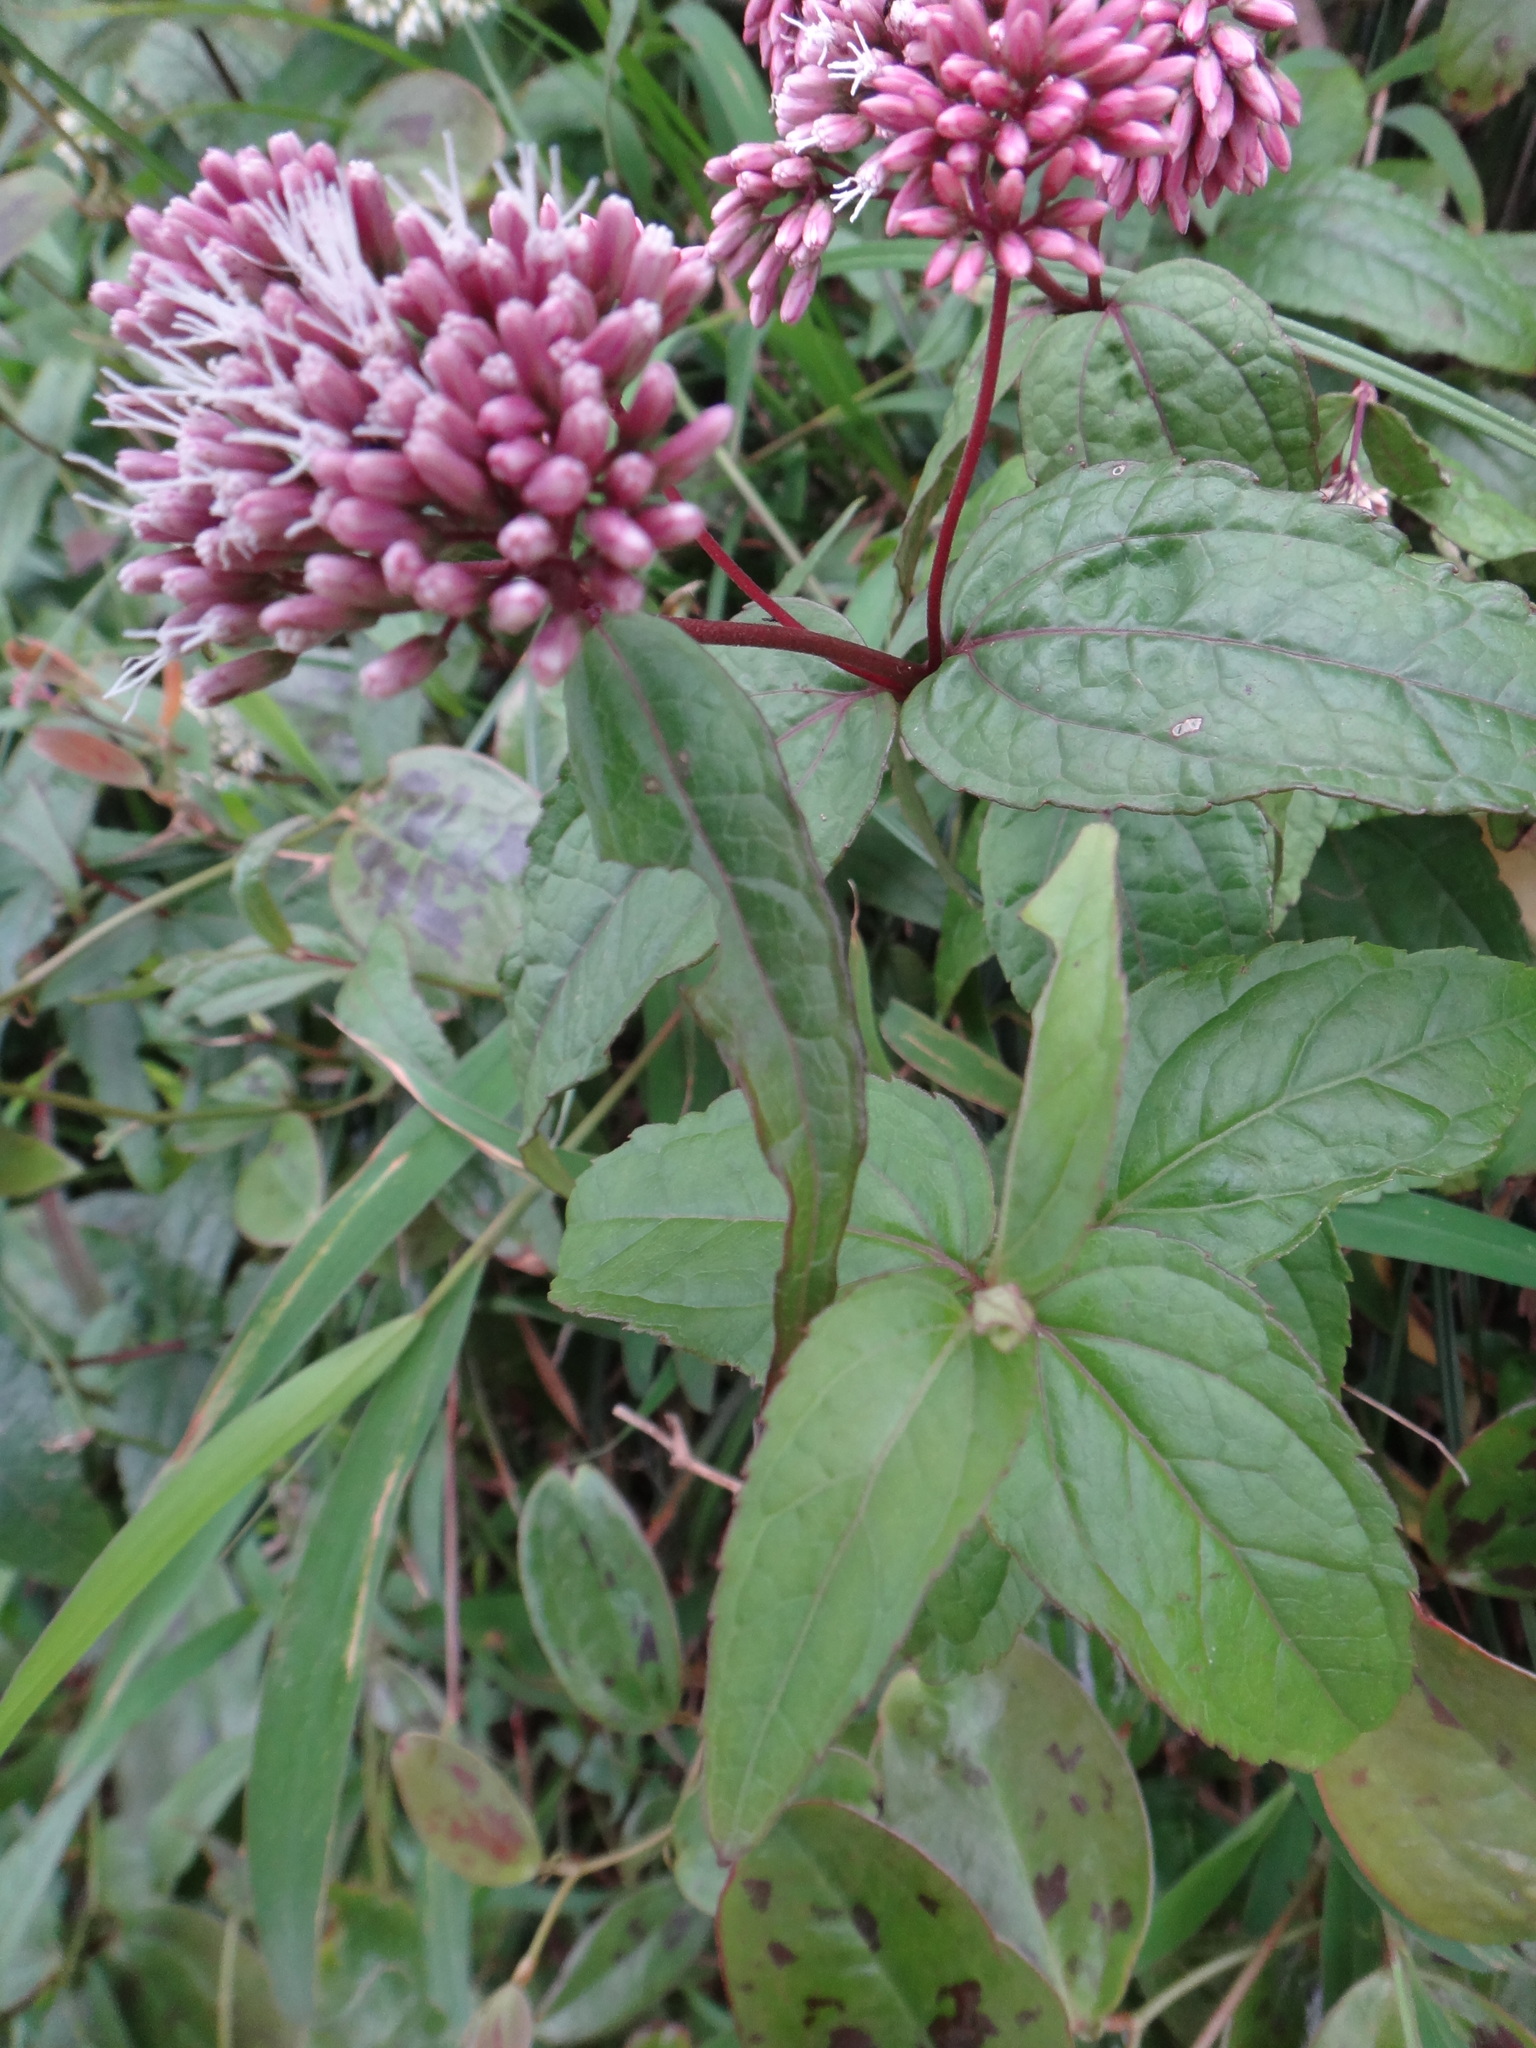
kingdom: Plantae
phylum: Tracheophyta
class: Magnoliopsida
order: Asterales
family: Asteraceae
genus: Eupatorium
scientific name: Eupatorium luchuense
